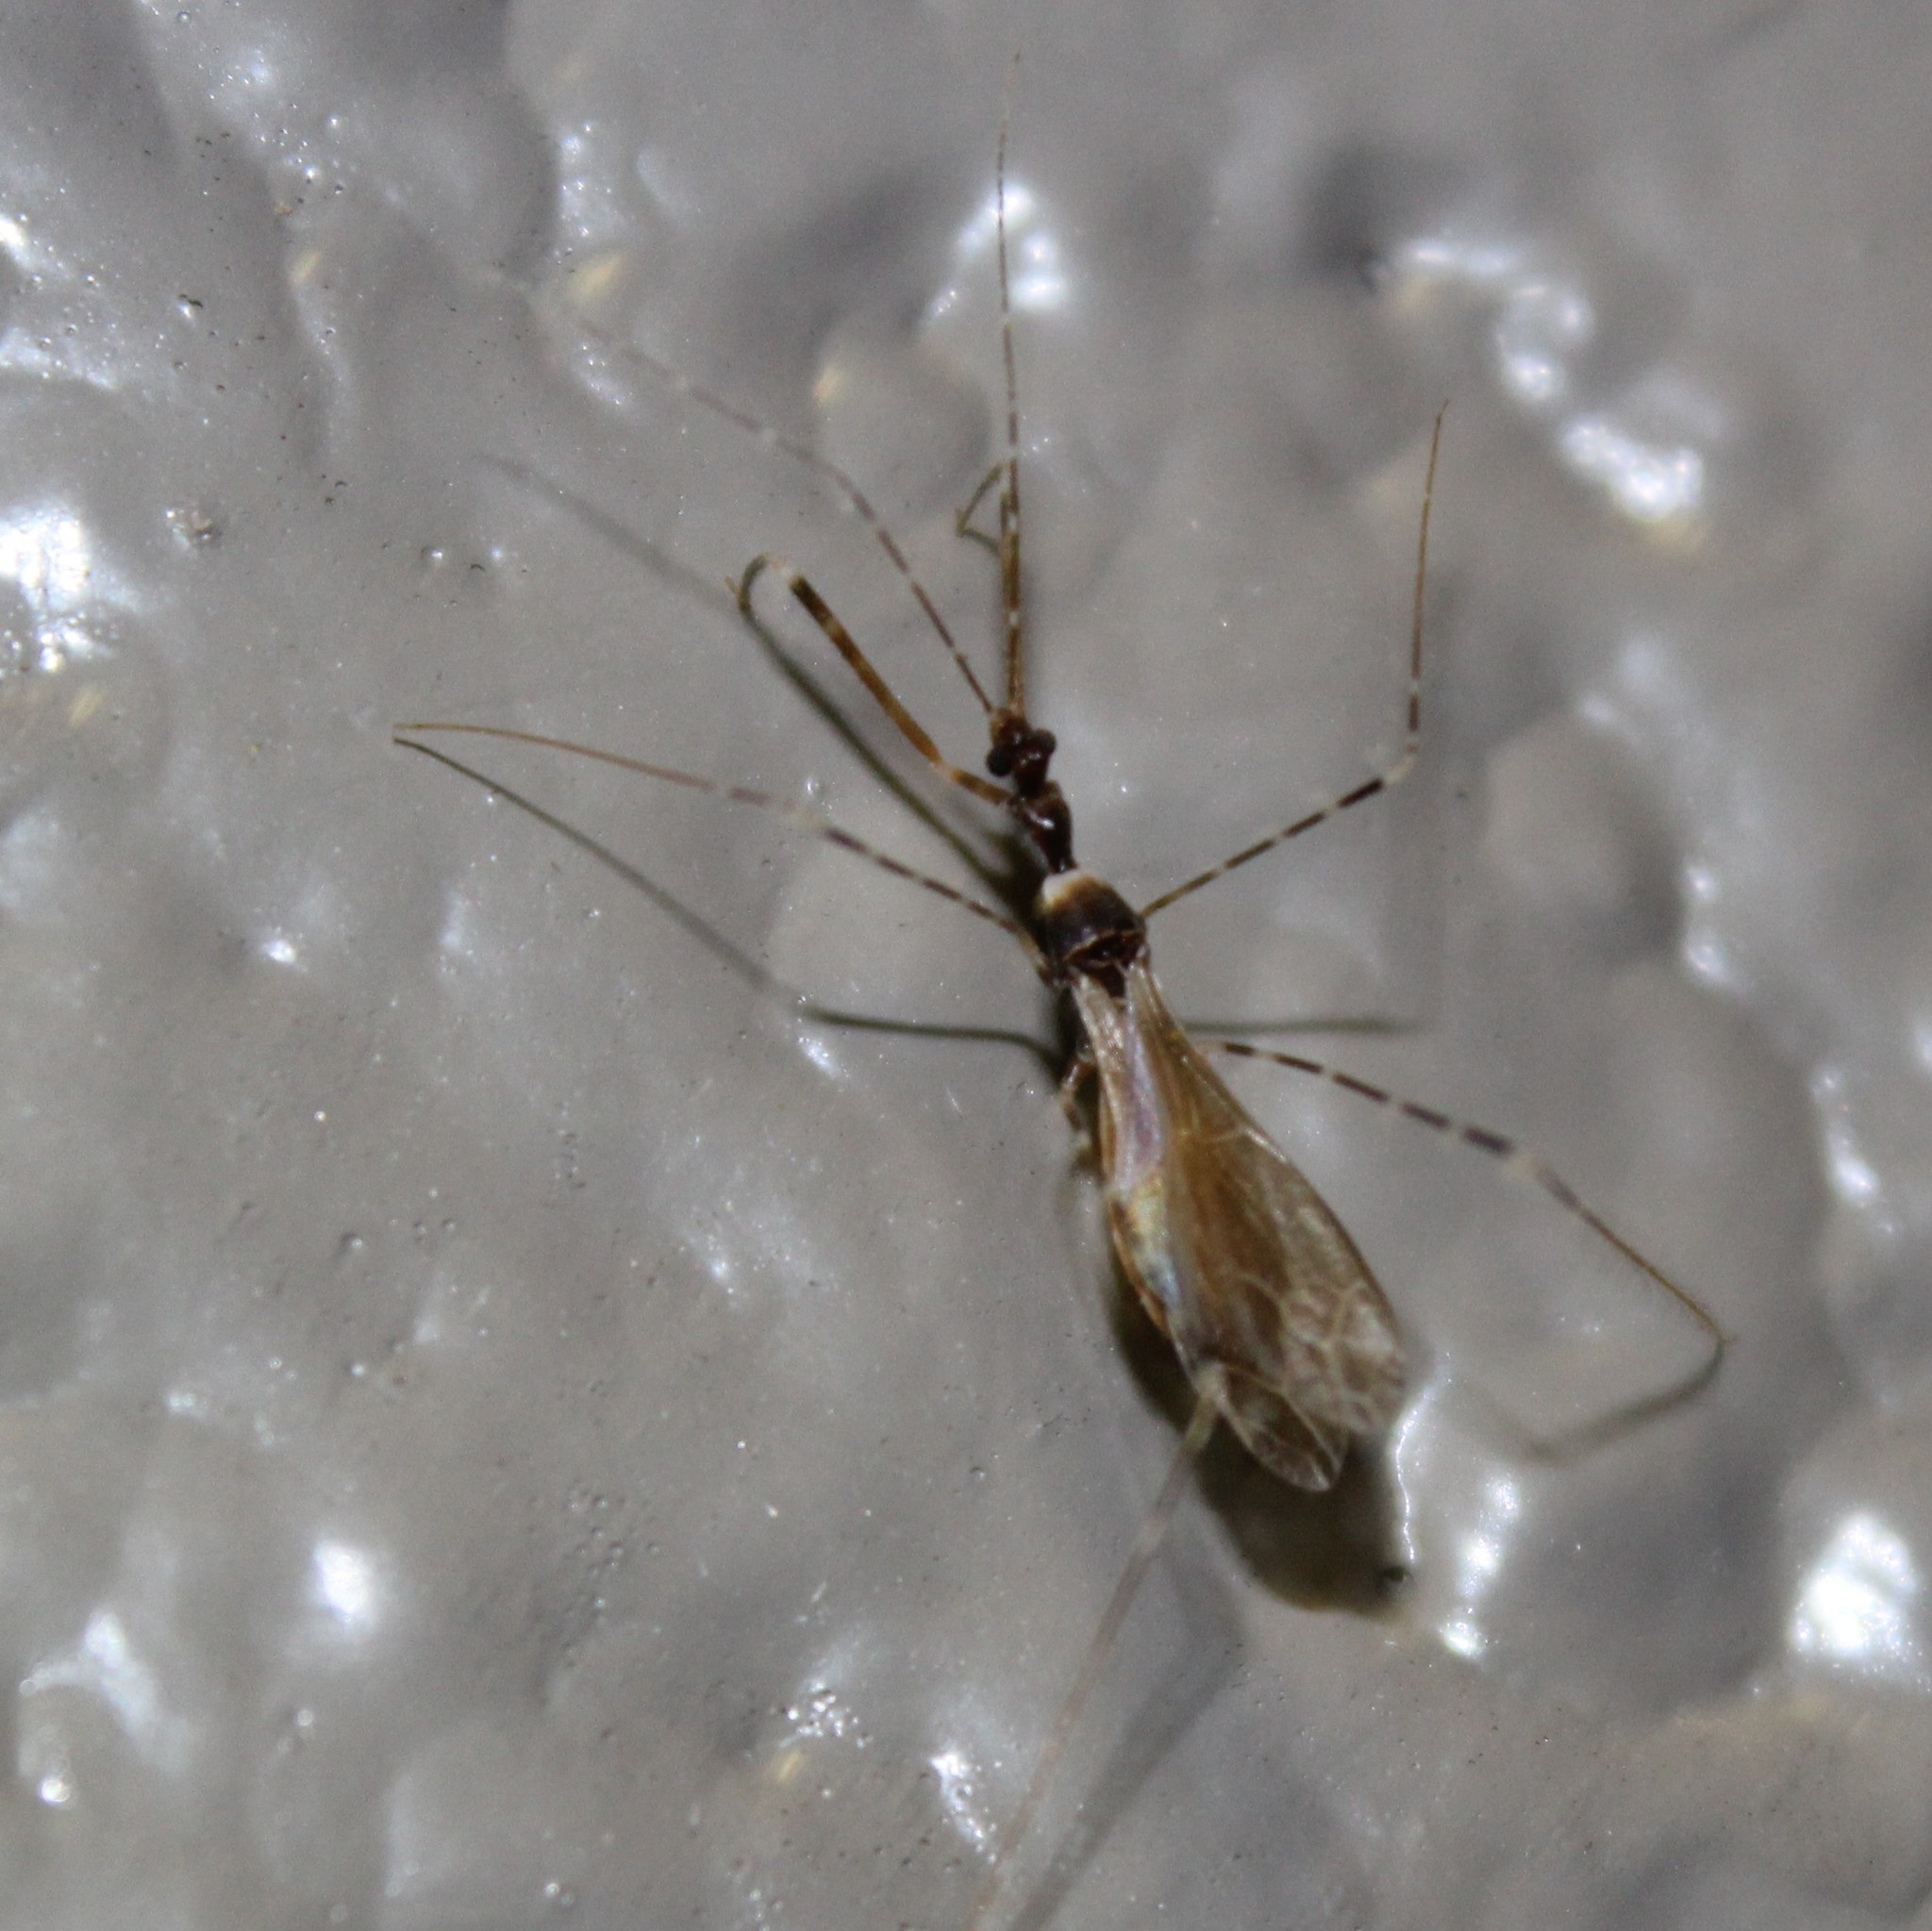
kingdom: Animalia
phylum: Arthropoda
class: Insecta
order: Hemiptera
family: Reduviidae
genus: Stenolemoides
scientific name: Stenolemoides arizonensis
